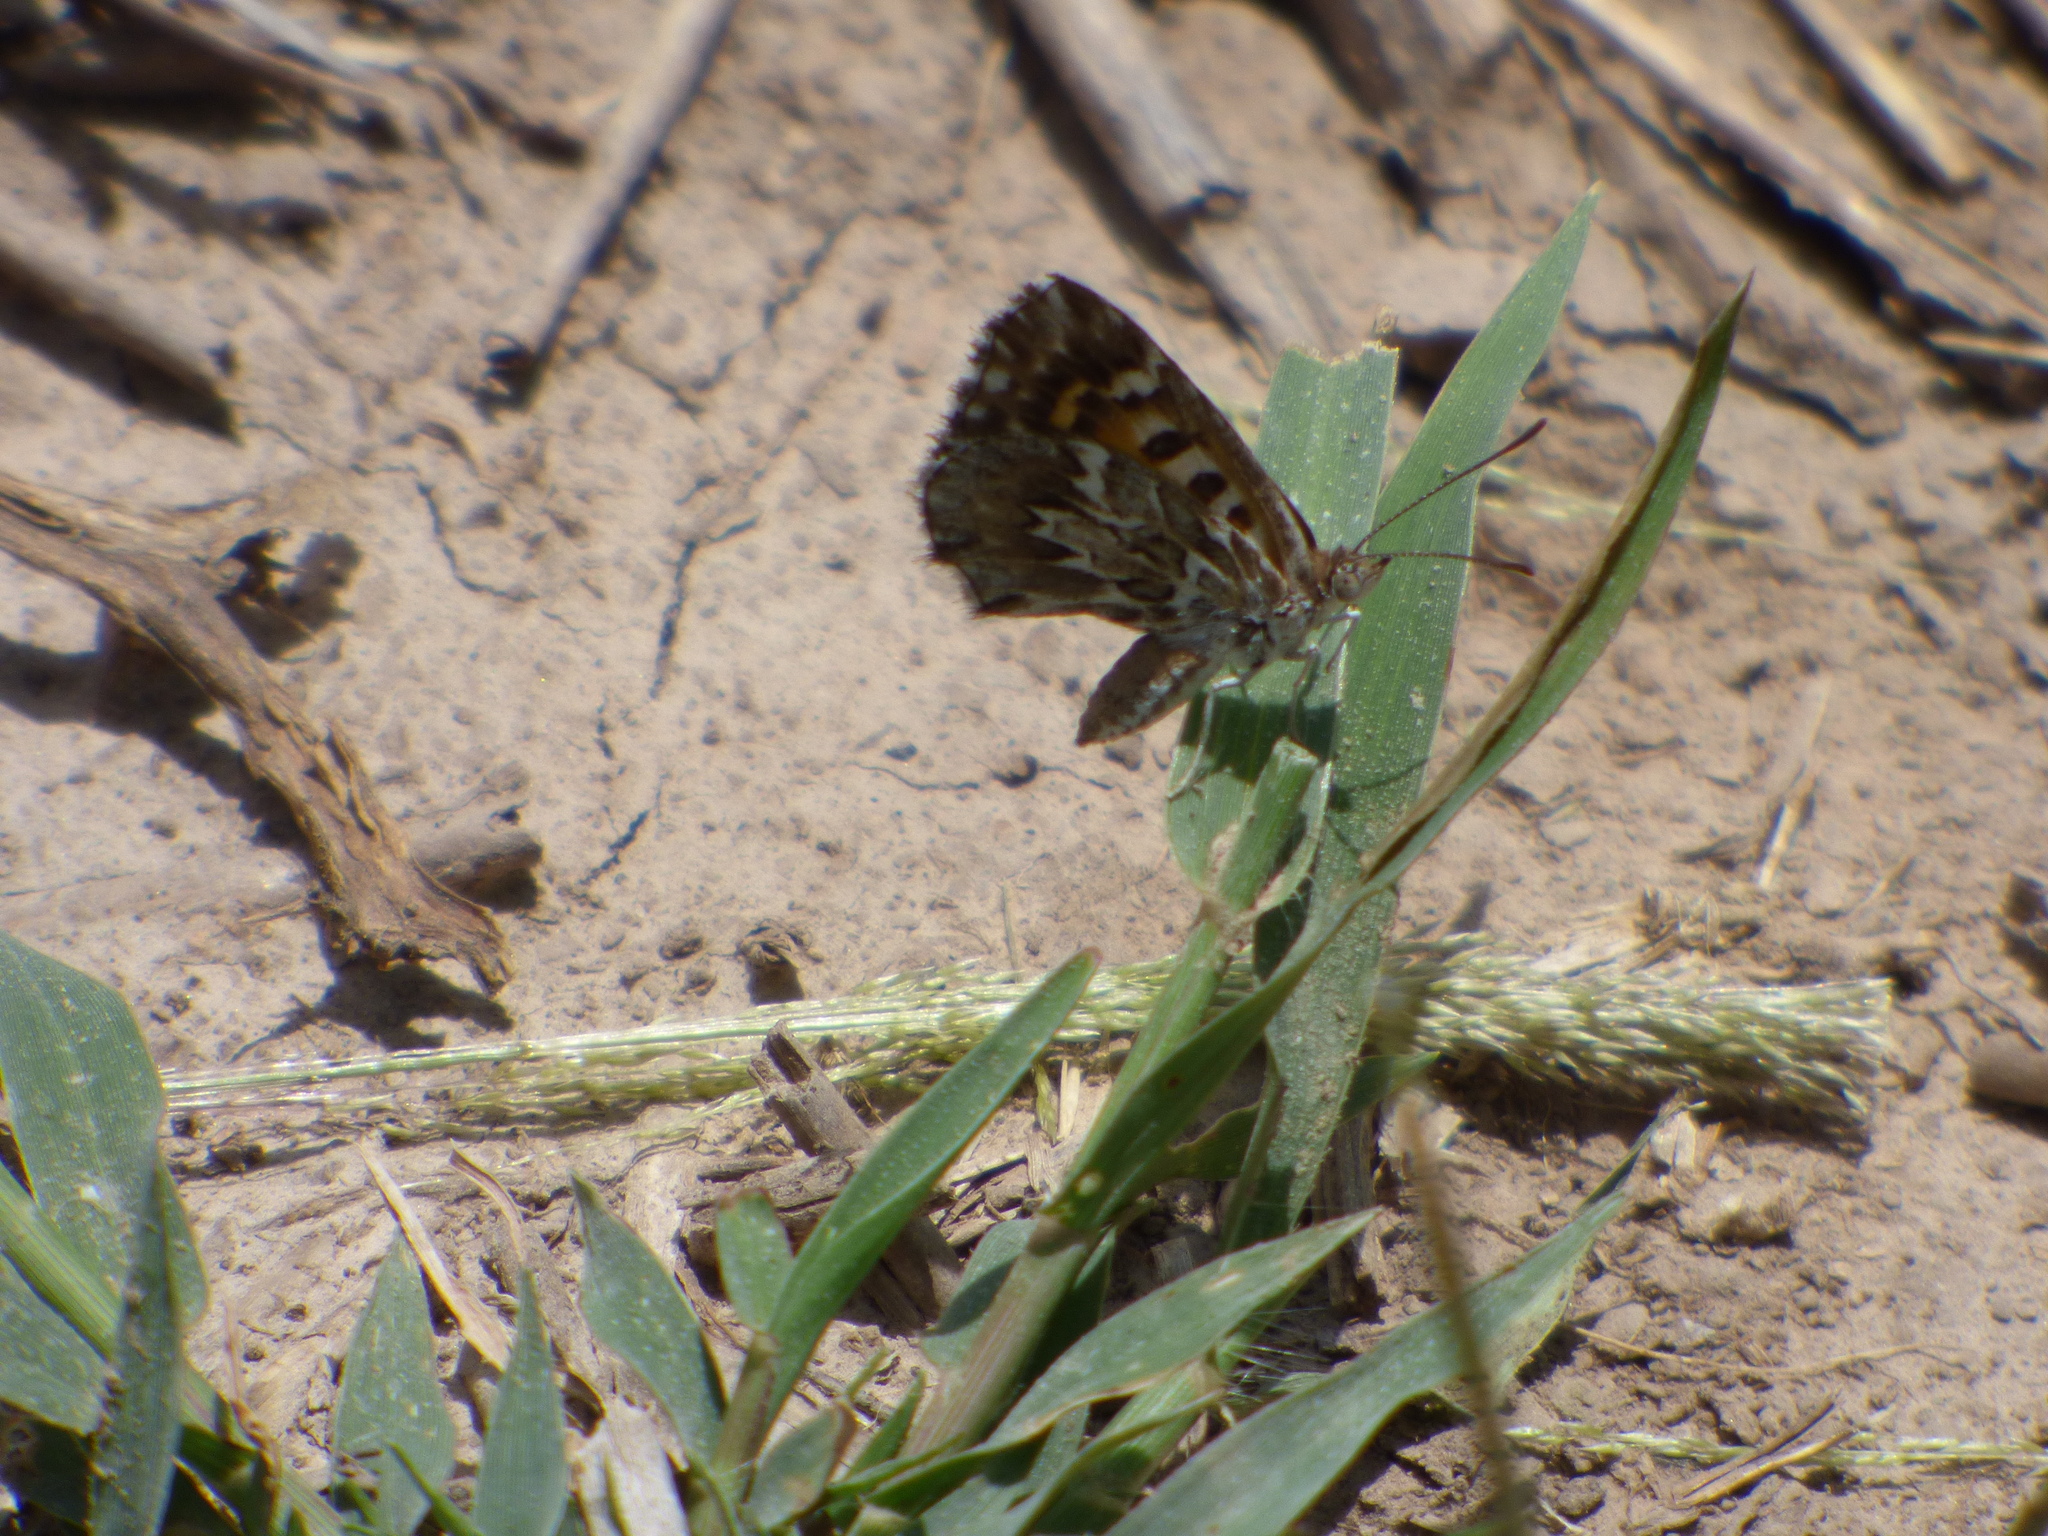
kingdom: Animalia
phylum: Arthropoda
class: Insecta
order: Lepidoptera
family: Lycaenidae
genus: Aricoris
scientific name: Aricoris notialis
